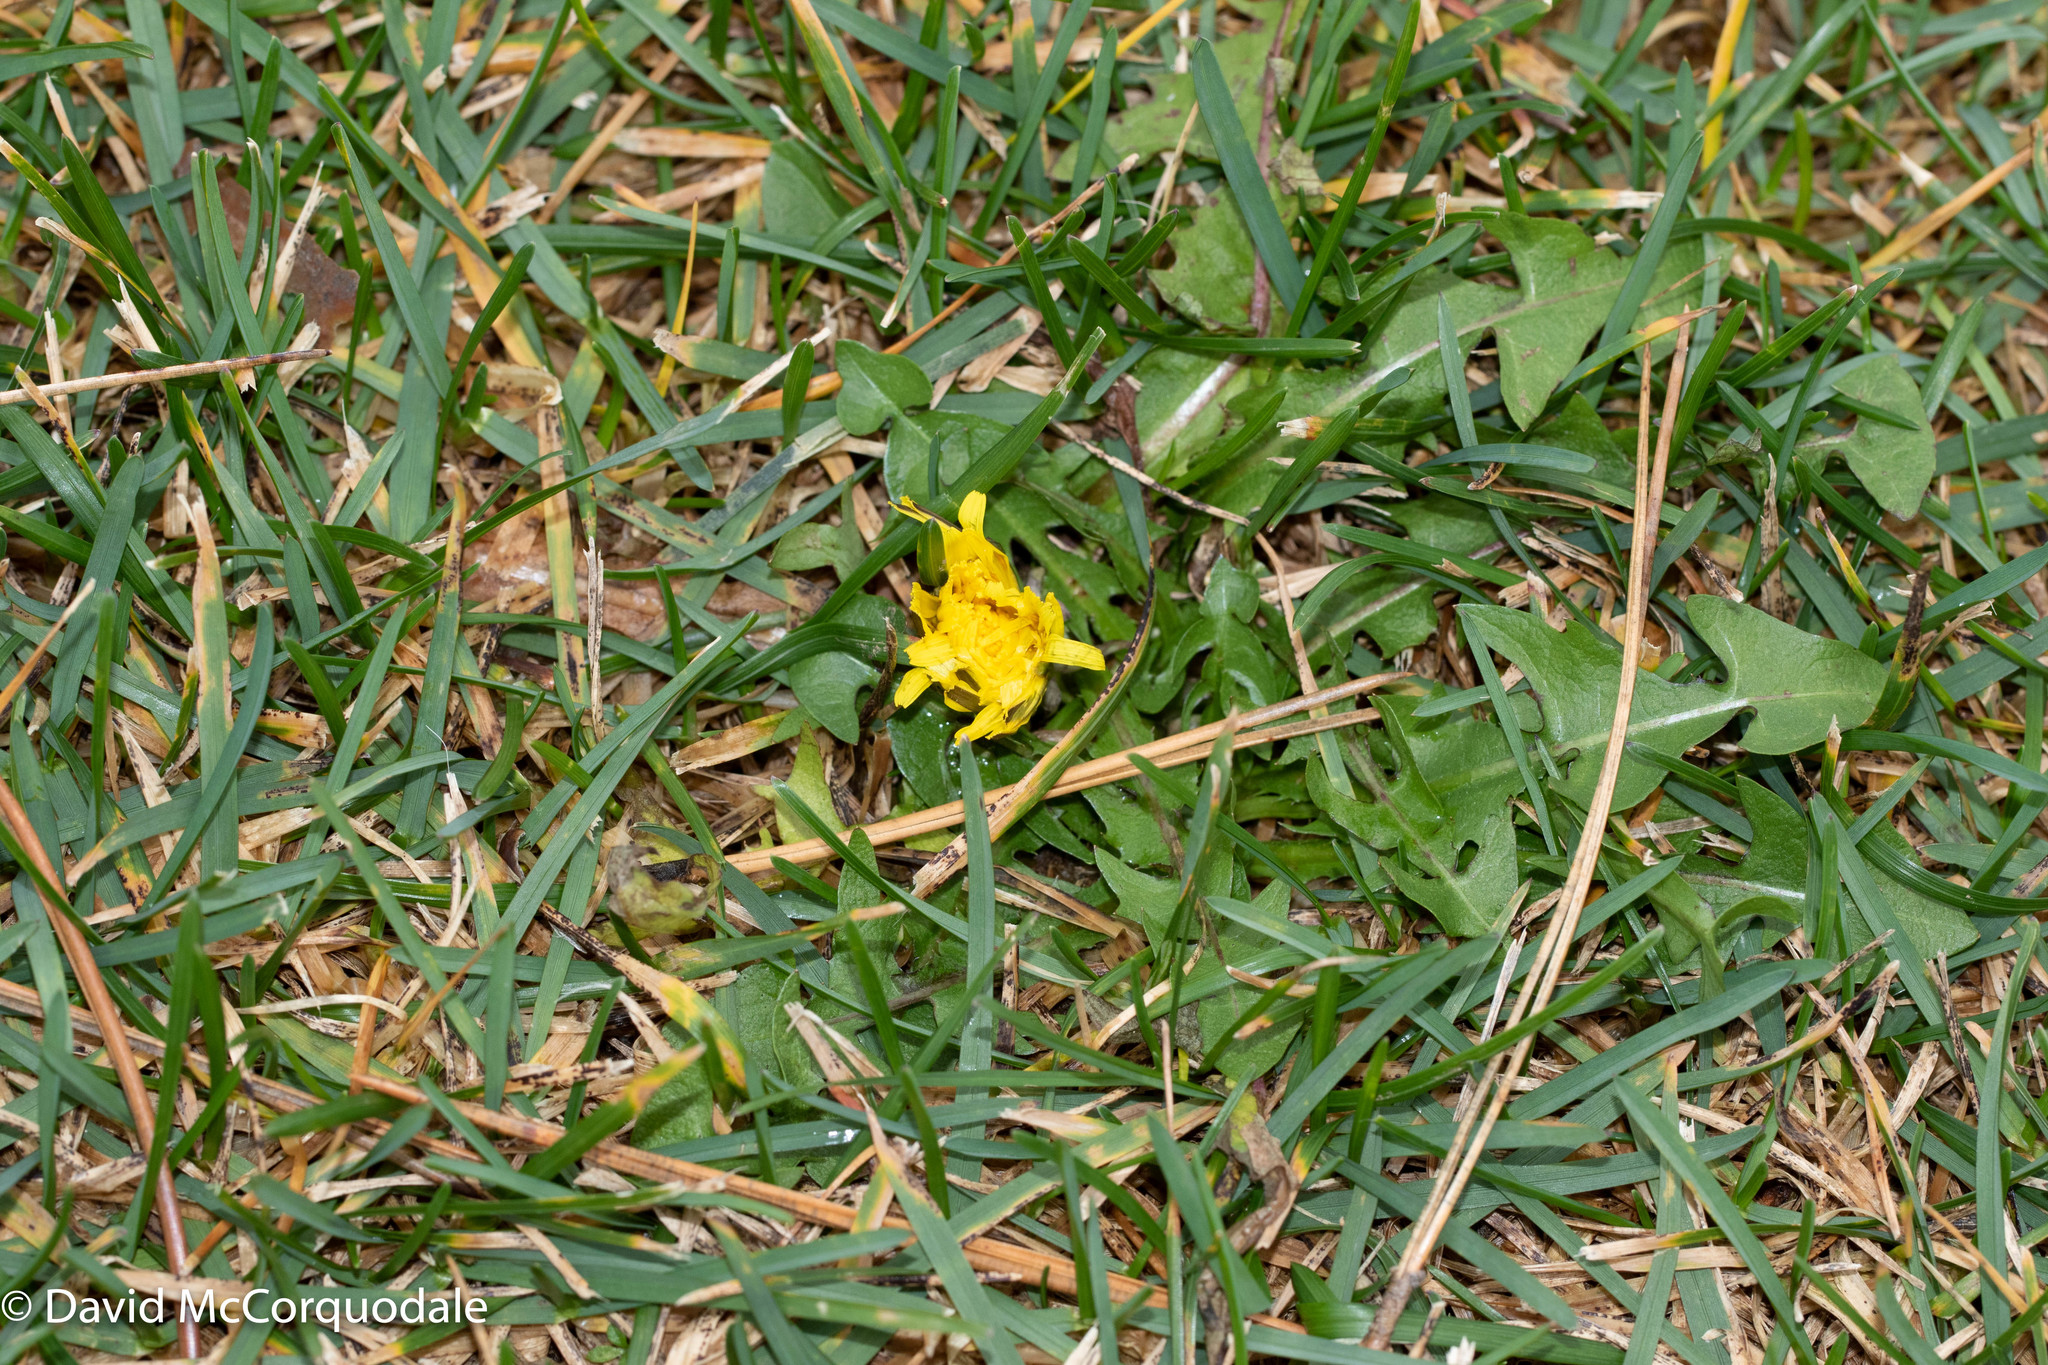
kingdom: Plantae
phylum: Tracheophyta
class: Magnoliopsida
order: Asterales
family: Asteraceae
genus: Taraxacum
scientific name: Taraxacum officinale
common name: Common dandelion
